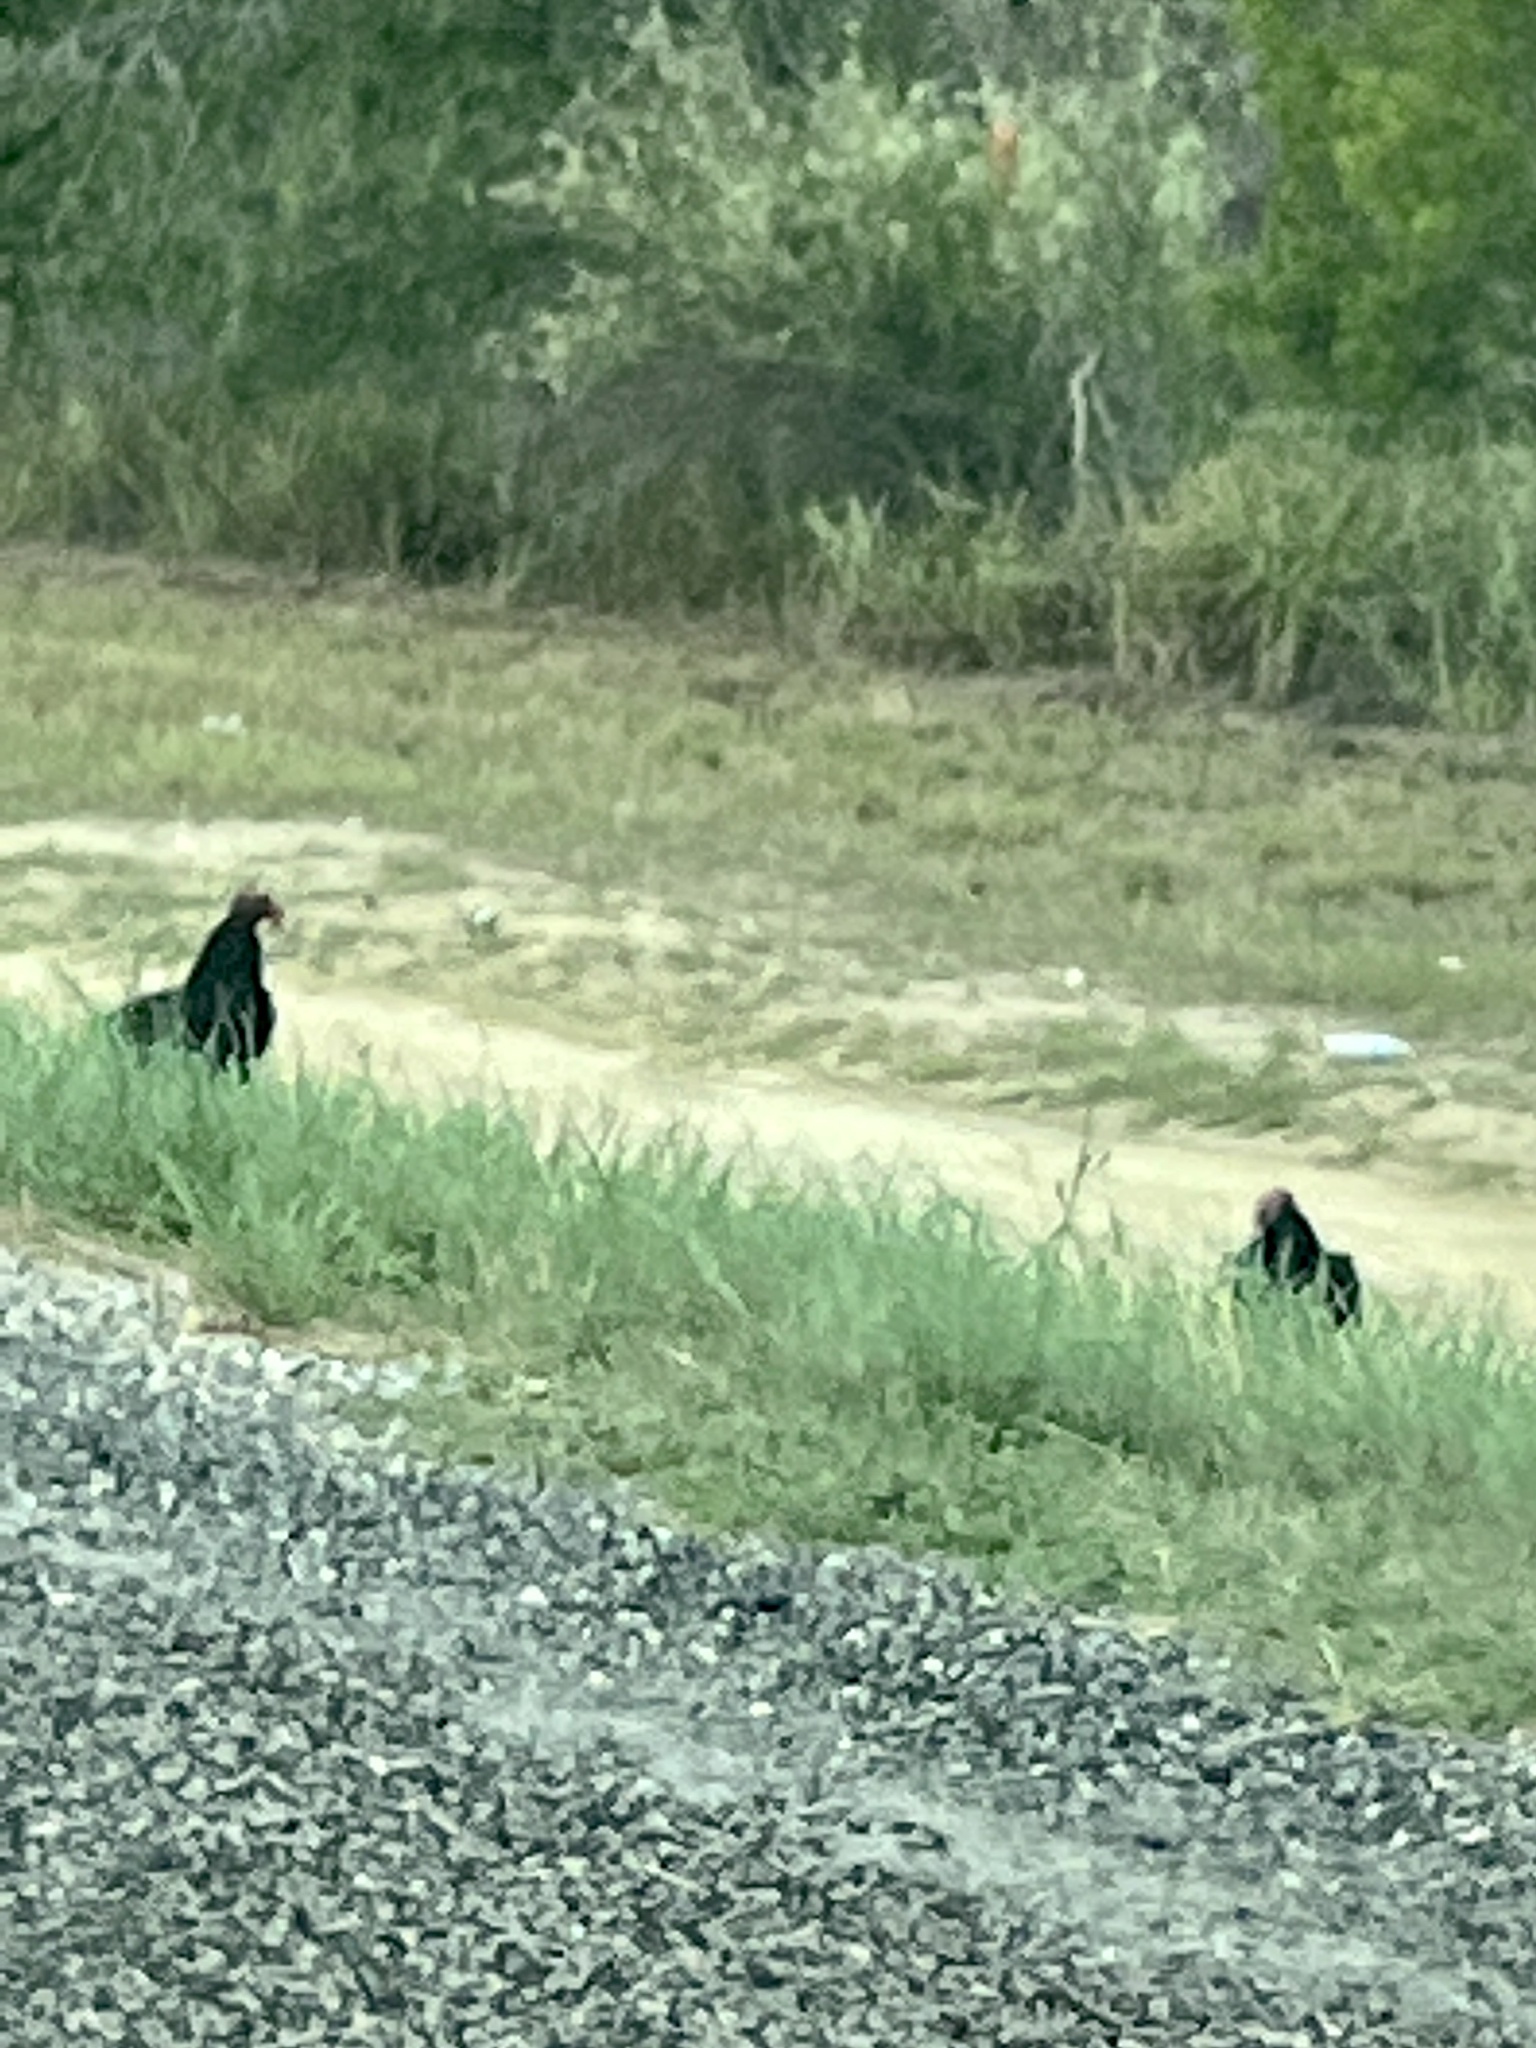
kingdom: Animalia
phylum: Chordata
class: Aves
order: Accipitriformes
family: Cathartidae
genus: Cathartes
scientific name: Cathartes aura
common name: Turkey vulture
